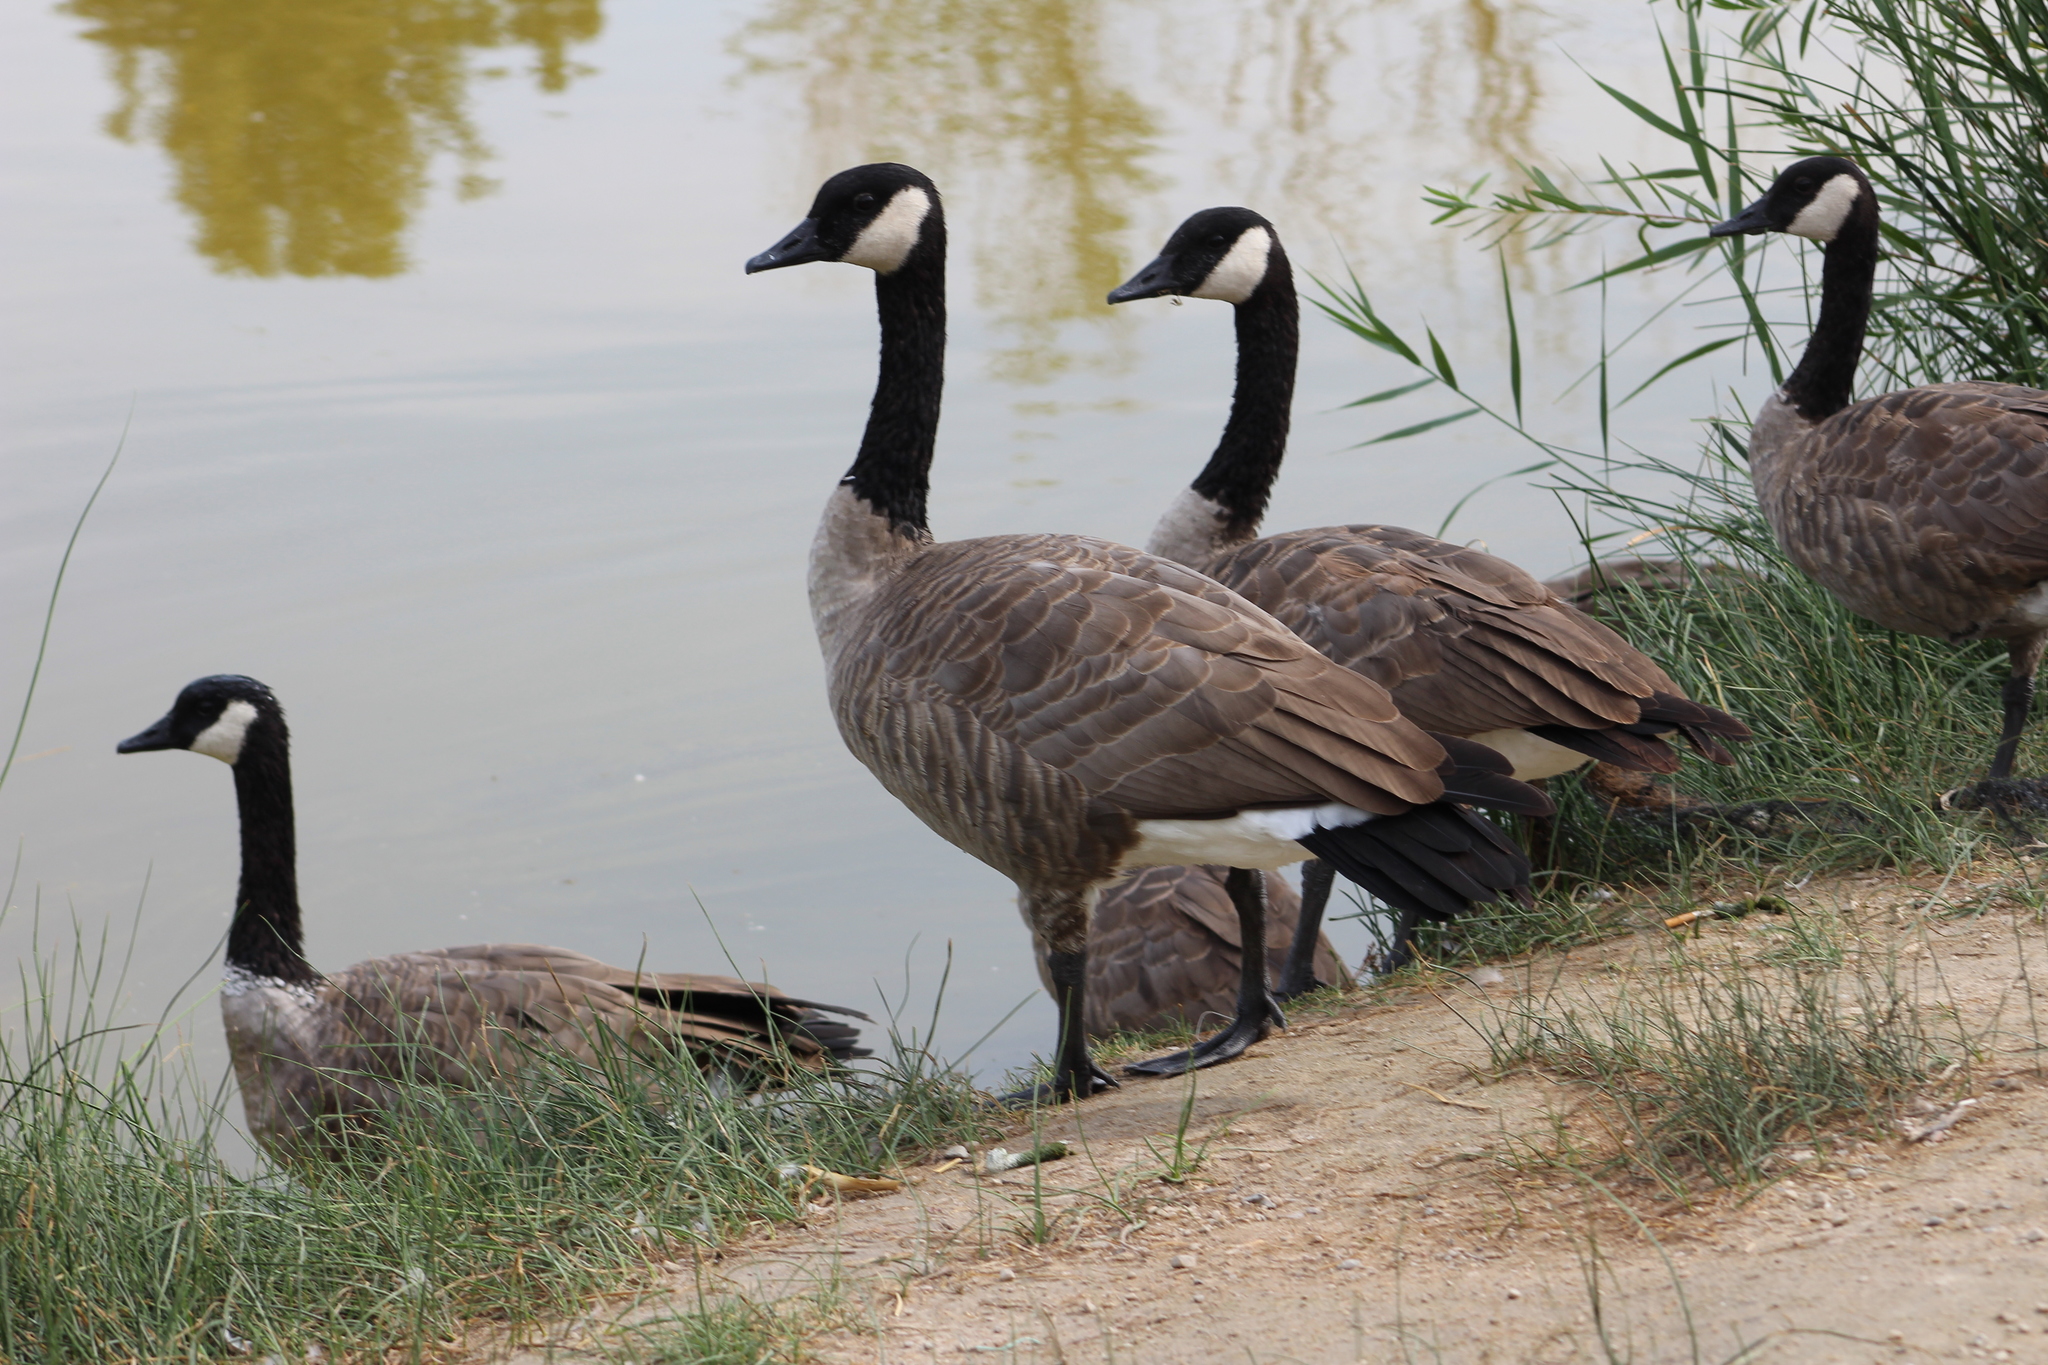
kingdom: Animalia
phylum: Chordata
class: Aves
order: Anseriformes
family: Anatidae
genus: Branta
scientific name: Branta canadensis
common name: Canada goose
